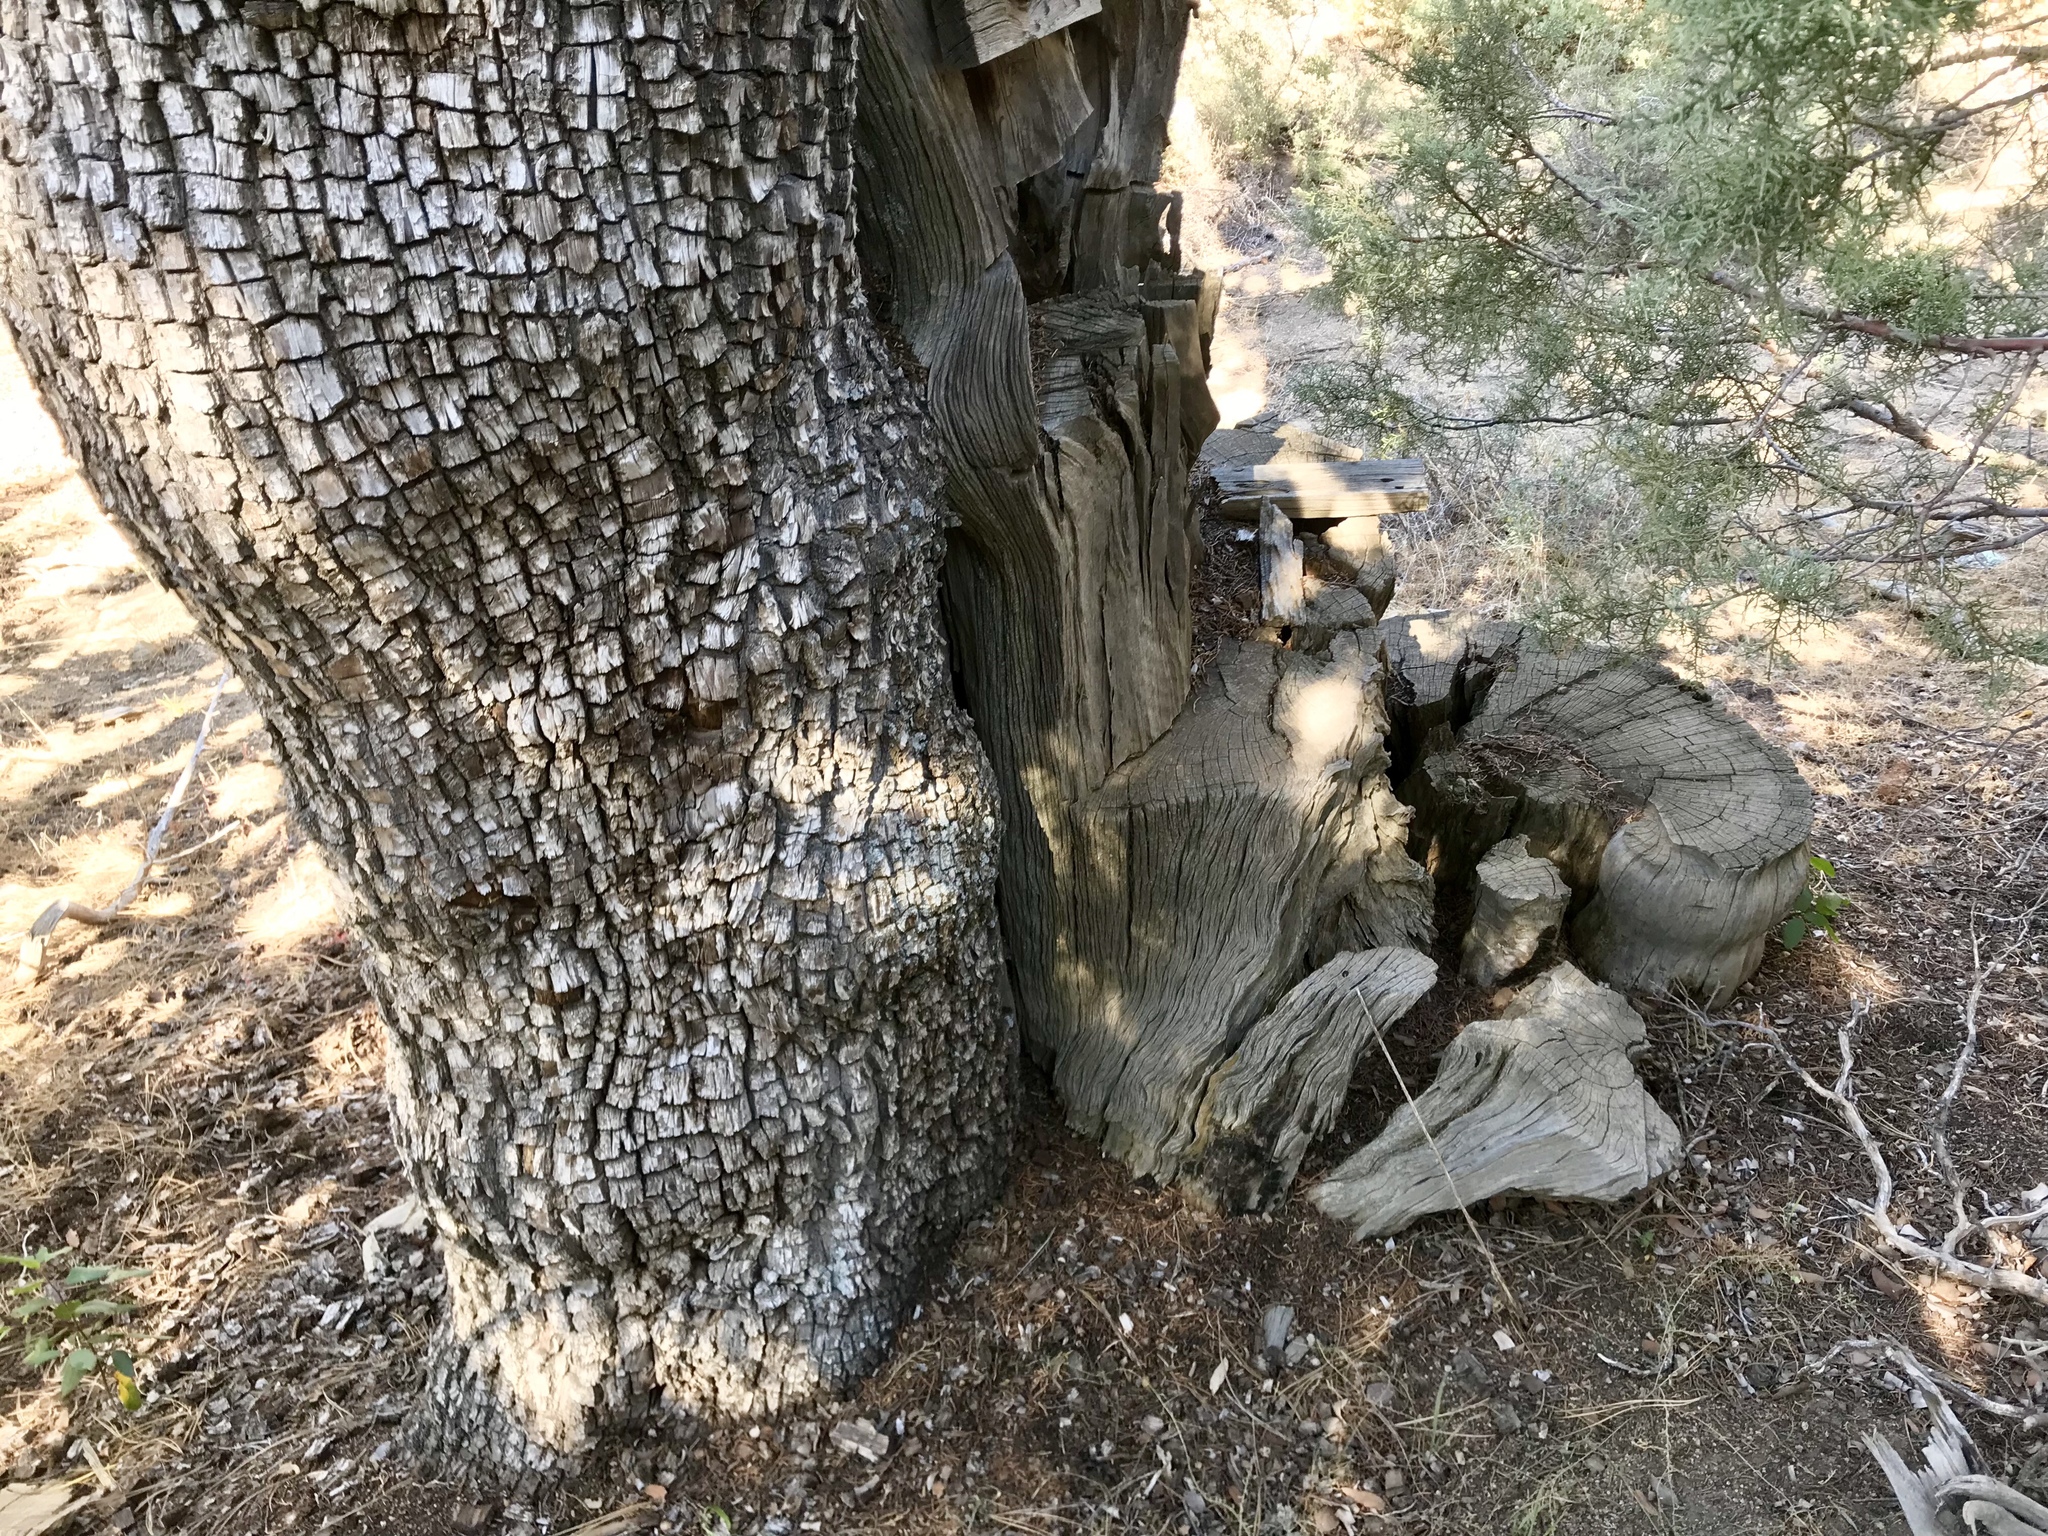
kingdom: Plantae
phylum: Tracheophyta
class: Pinopsida
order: Pinales
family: Cupressaceae
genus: Juniperus
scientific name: Juniperus deppeana
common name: Alligator juniper
